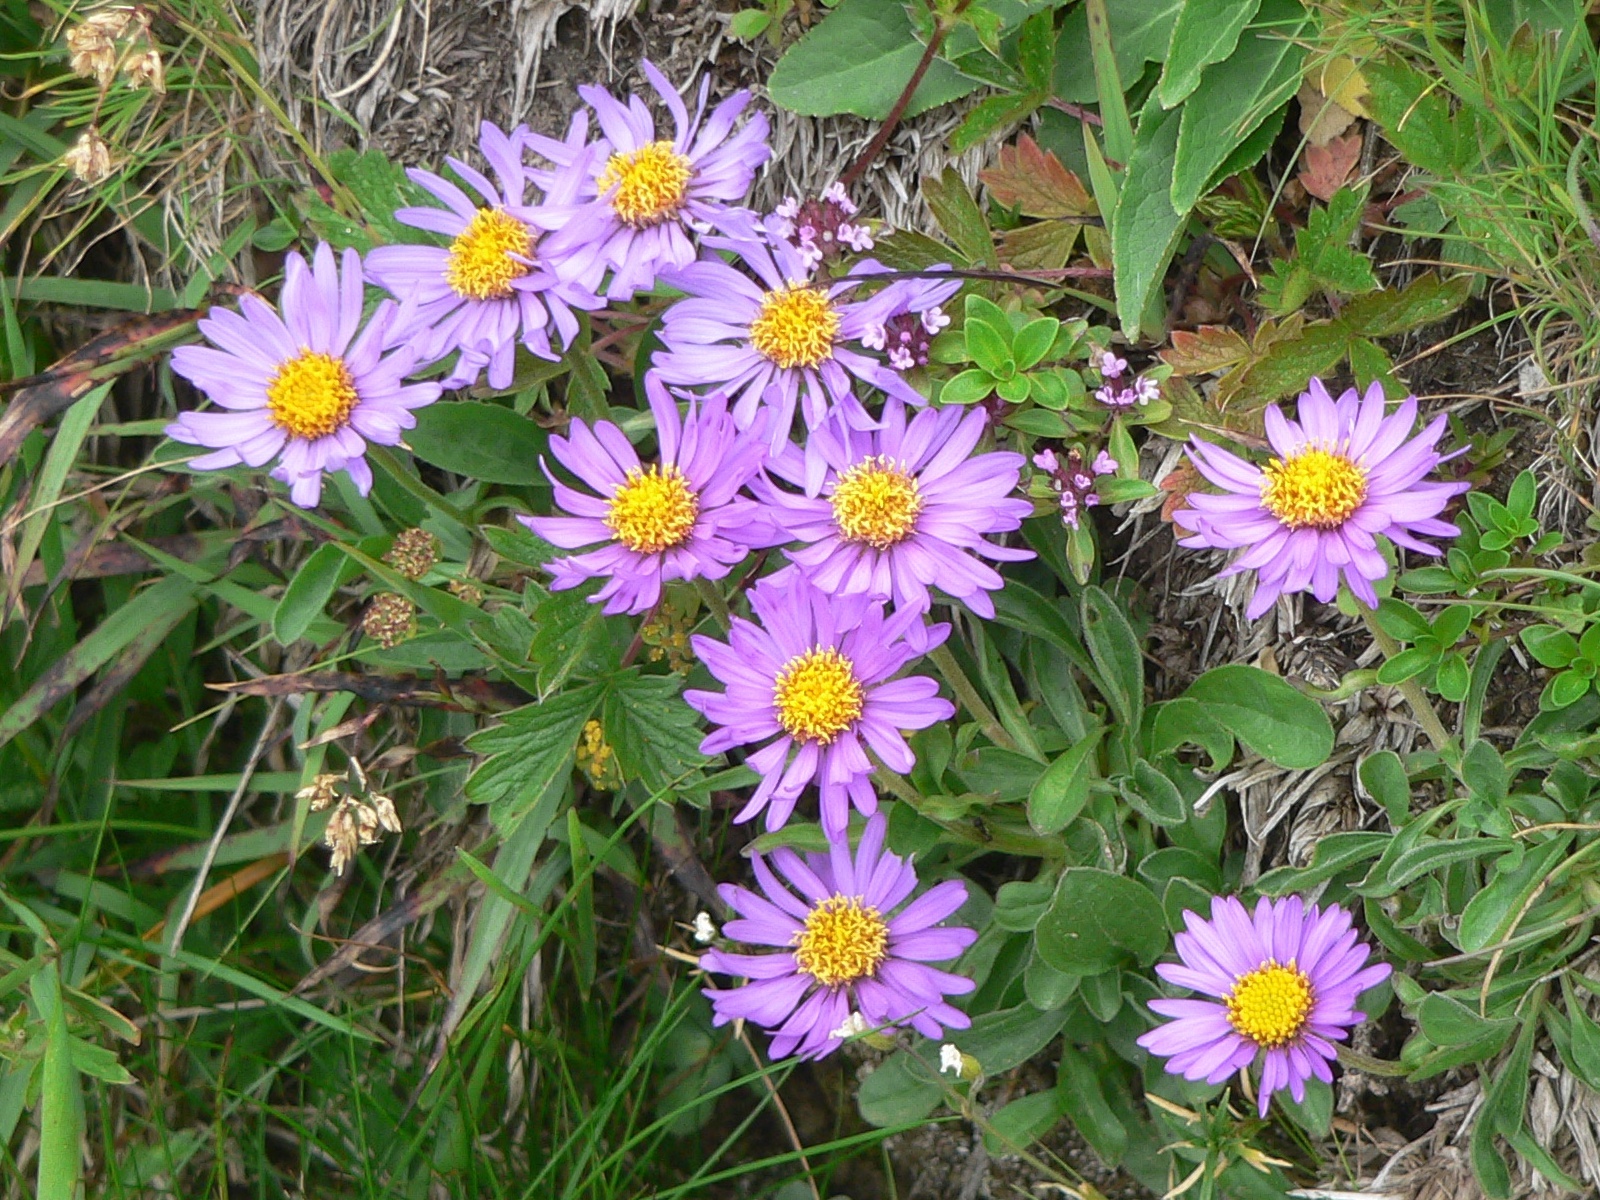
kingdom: Plantae
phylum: Tracheophyta
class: Magnoliopsida
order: Asterales
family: Asteraceae
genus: Aster
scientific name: Aster alpinus
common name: Alpine aster
